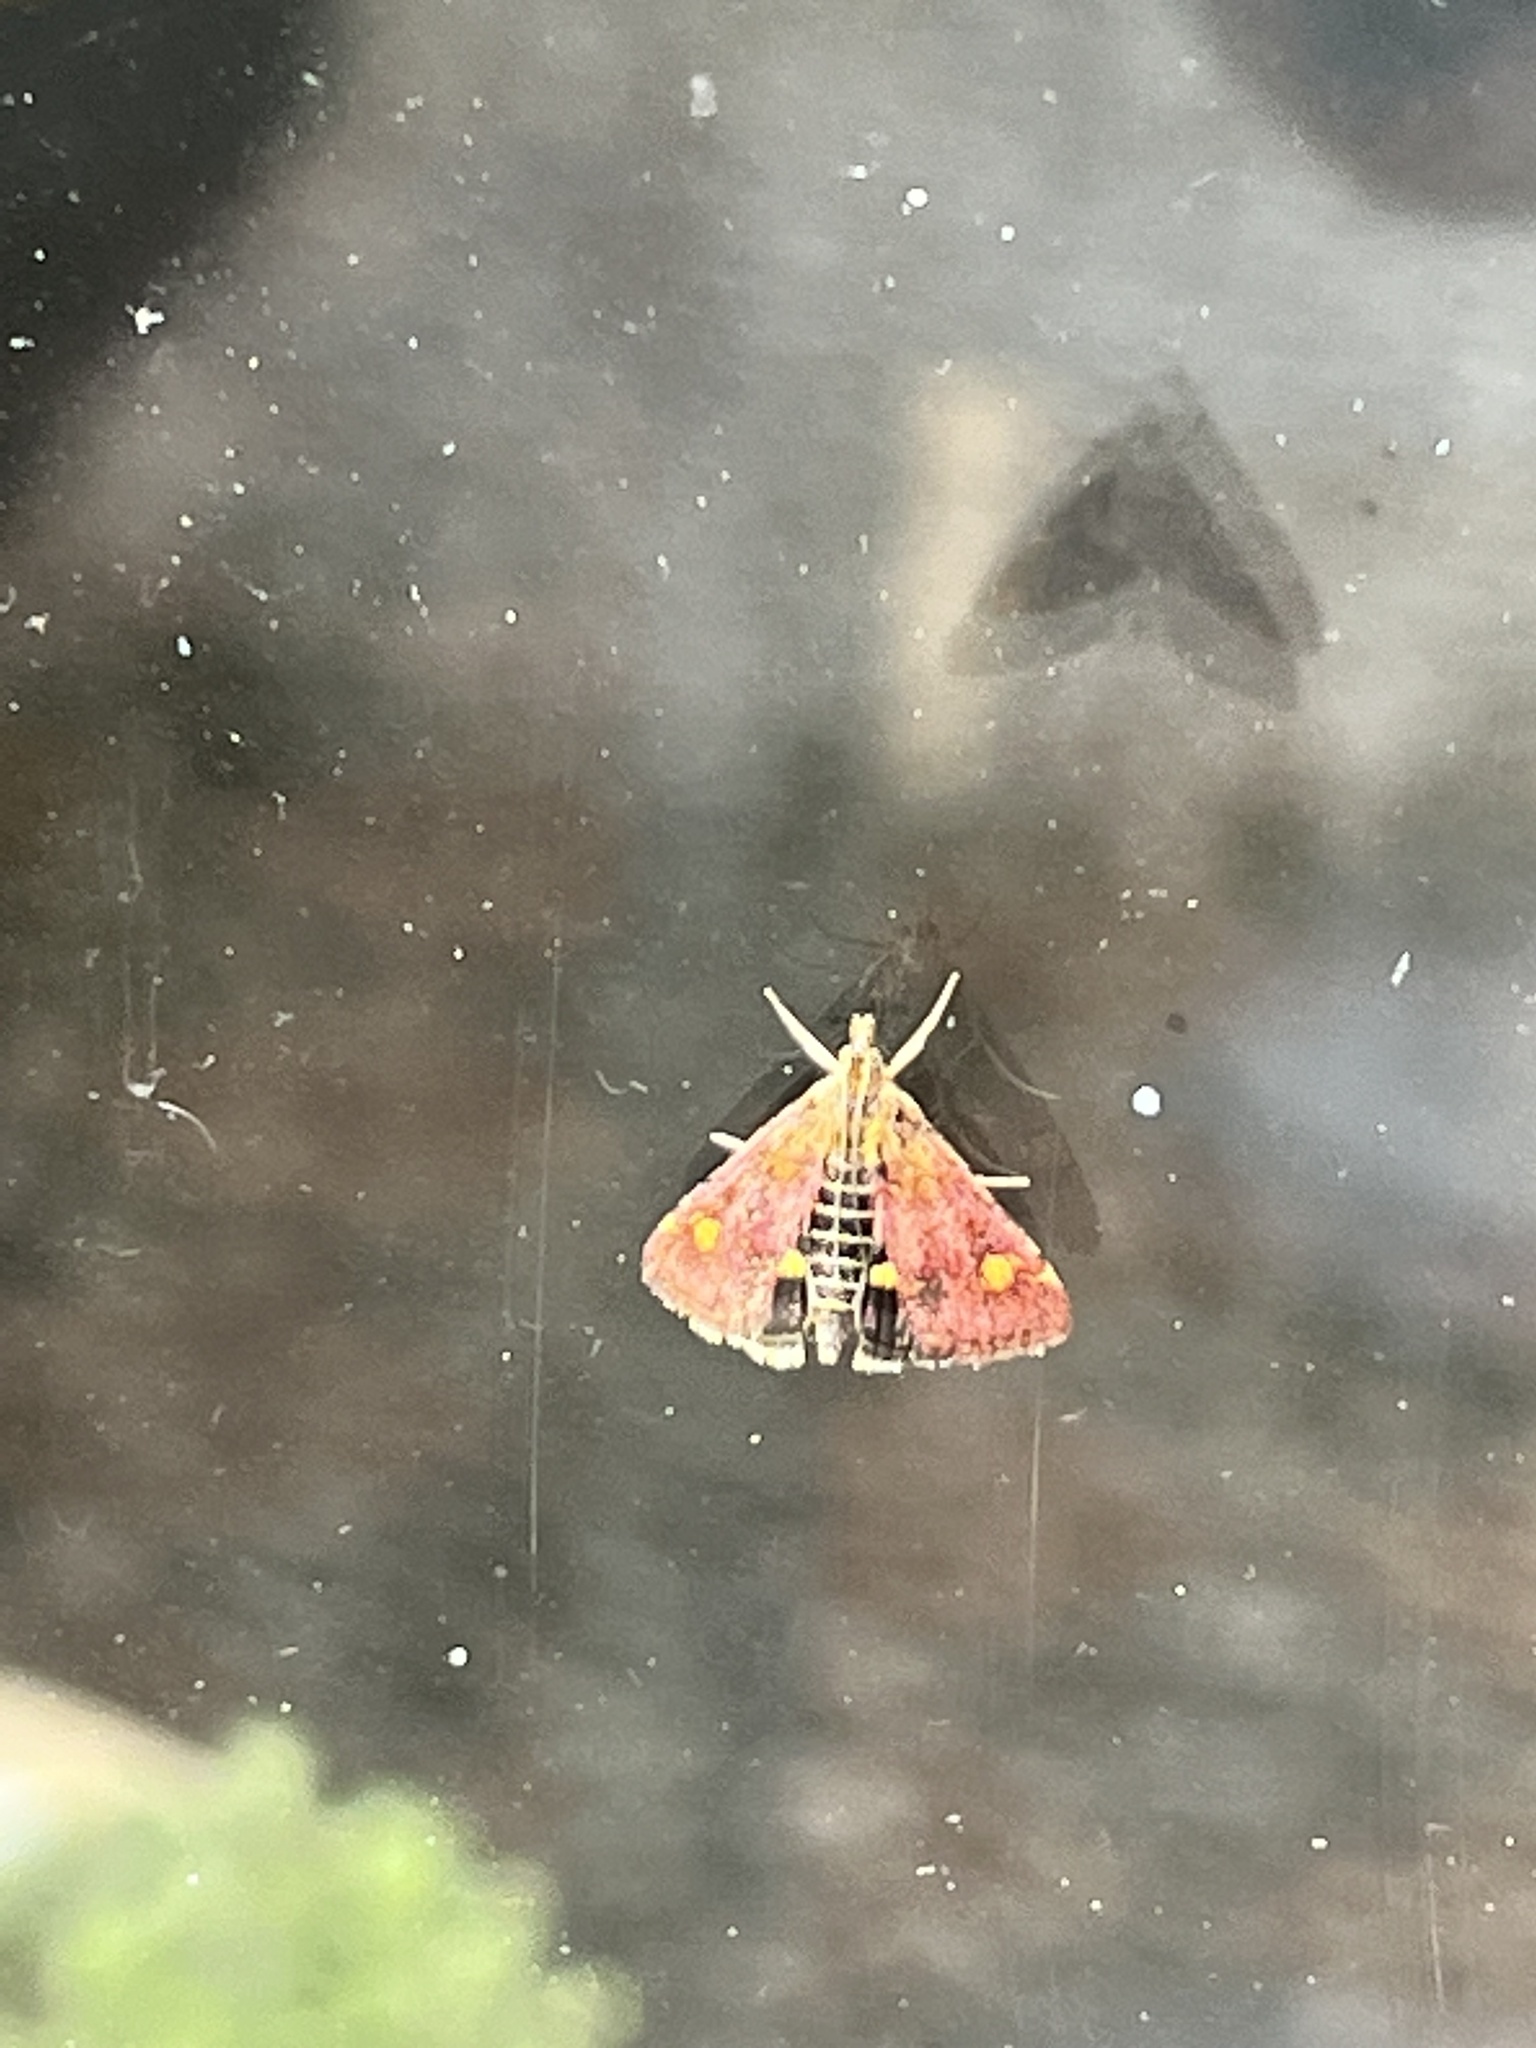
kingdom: Animalia
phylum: Arthropoda
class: Insecta
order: Lepidoptera
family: Crambidae
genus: Pyrausta
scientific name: Pyrausta aurata
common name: Small purple & gold
